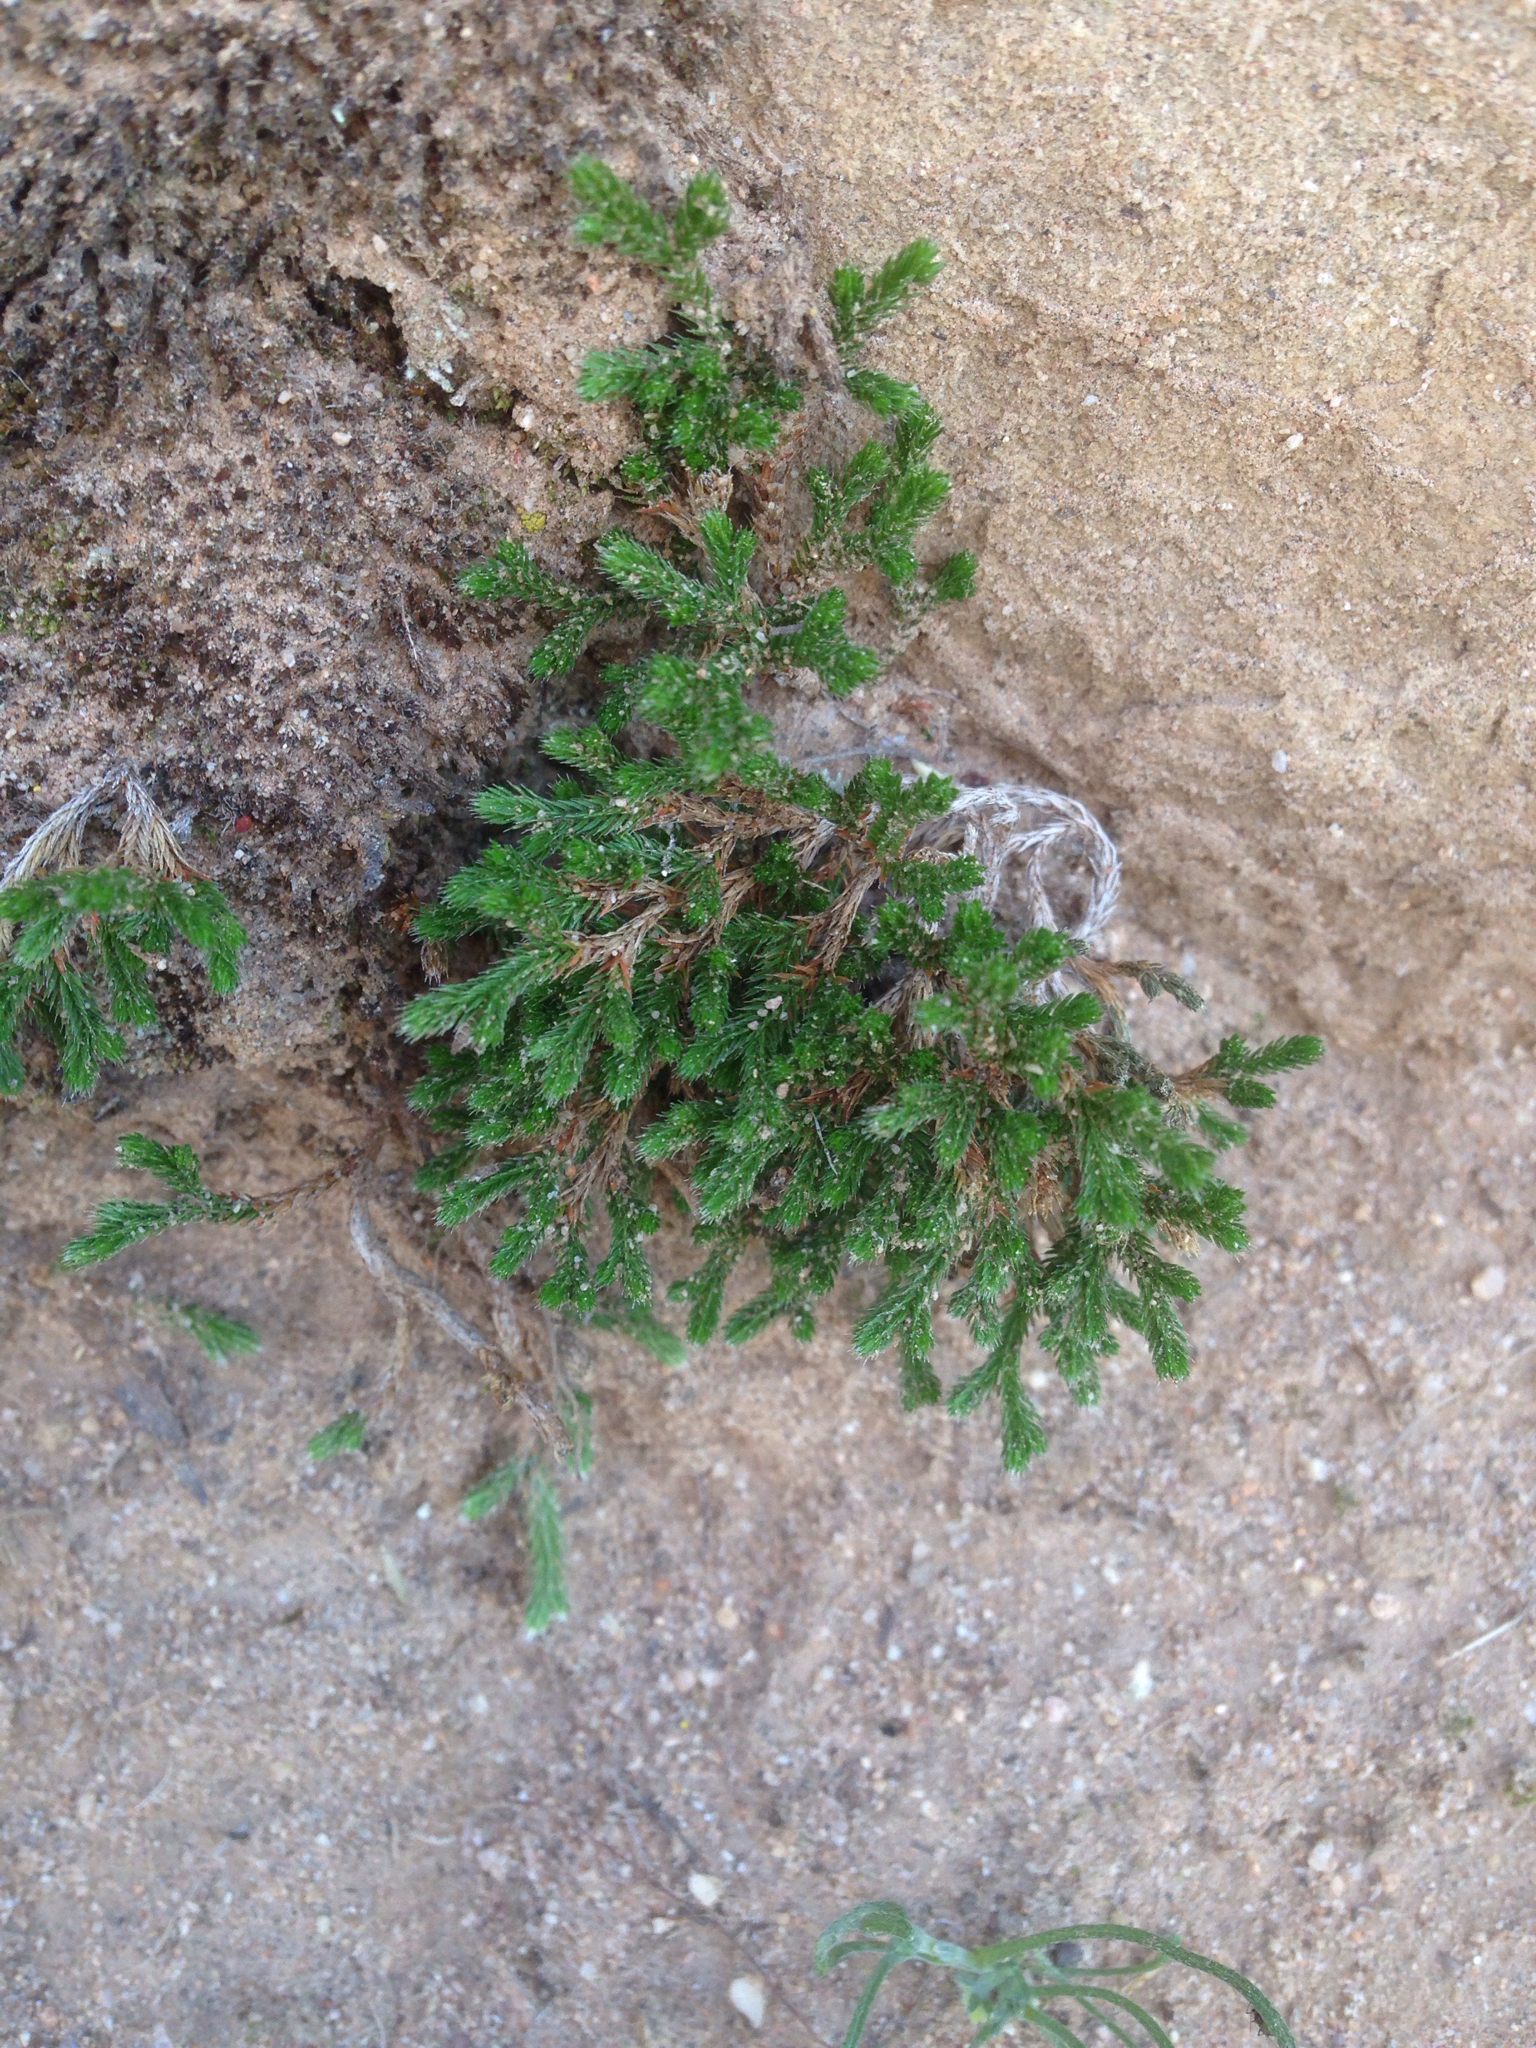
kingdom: Plantae
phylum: Tracheophyta
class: Lycopodiopsida
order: Selaginellales
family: Selaginellaceae
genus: Selaginella
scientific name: Selaginella bigelovii
